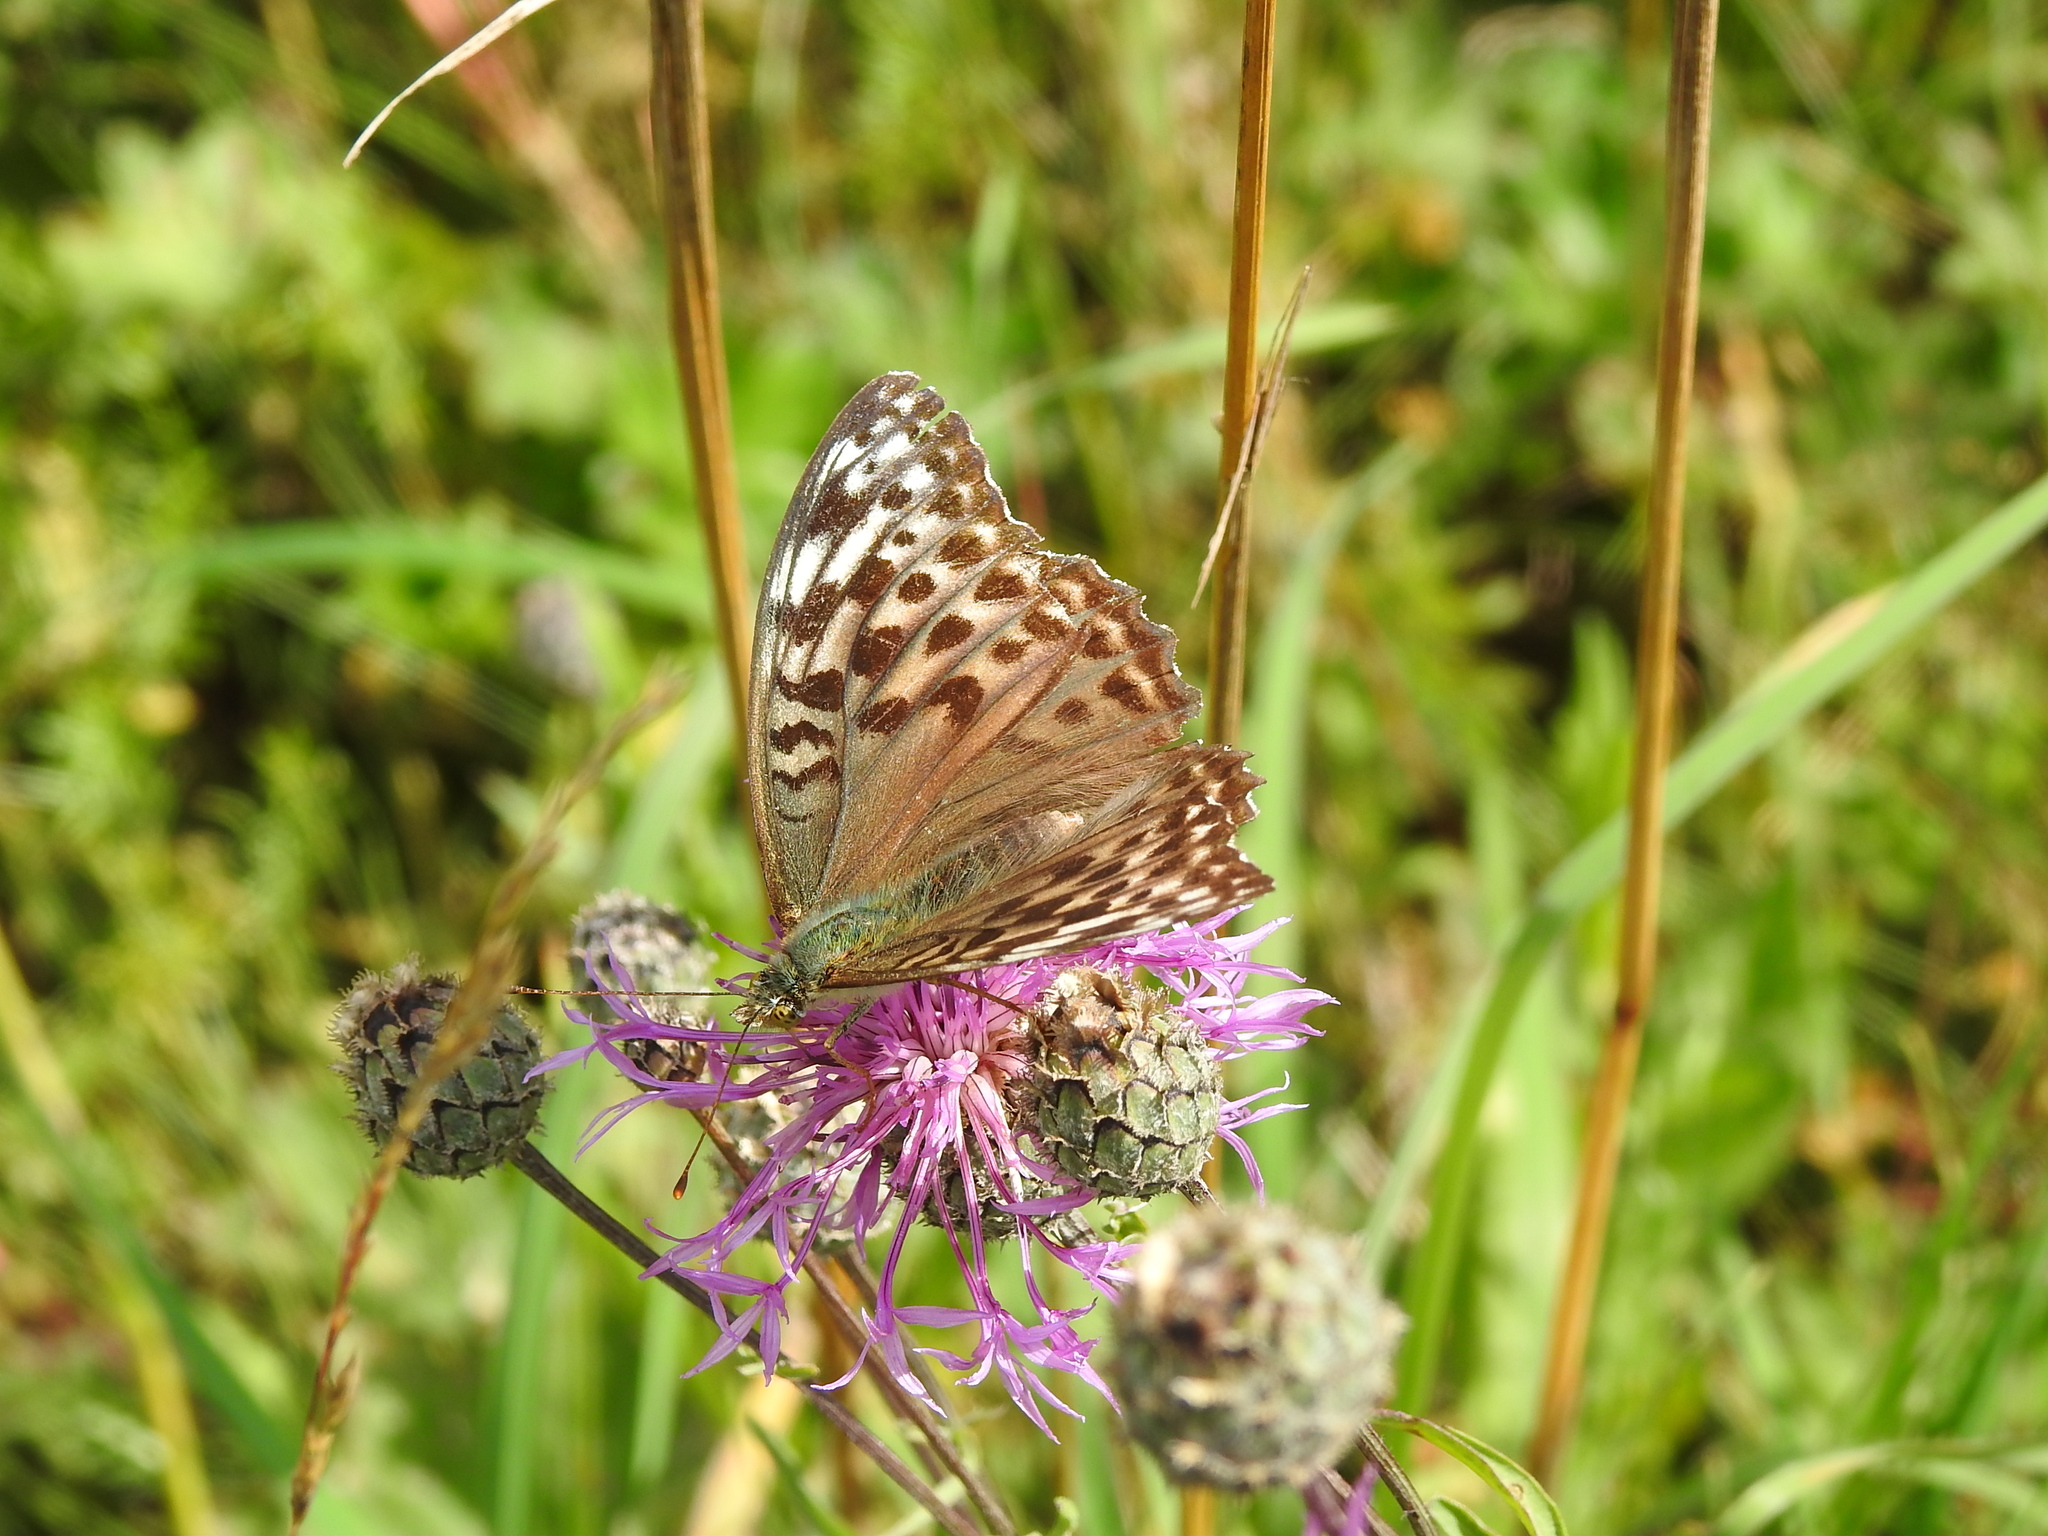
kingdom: Animalia
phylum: Arthropoda
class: Insecta
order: Lepidoptera
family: Nymphalidae
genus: Argynnis
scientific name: Argynnis paphia
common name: Silver-washed fritillary
